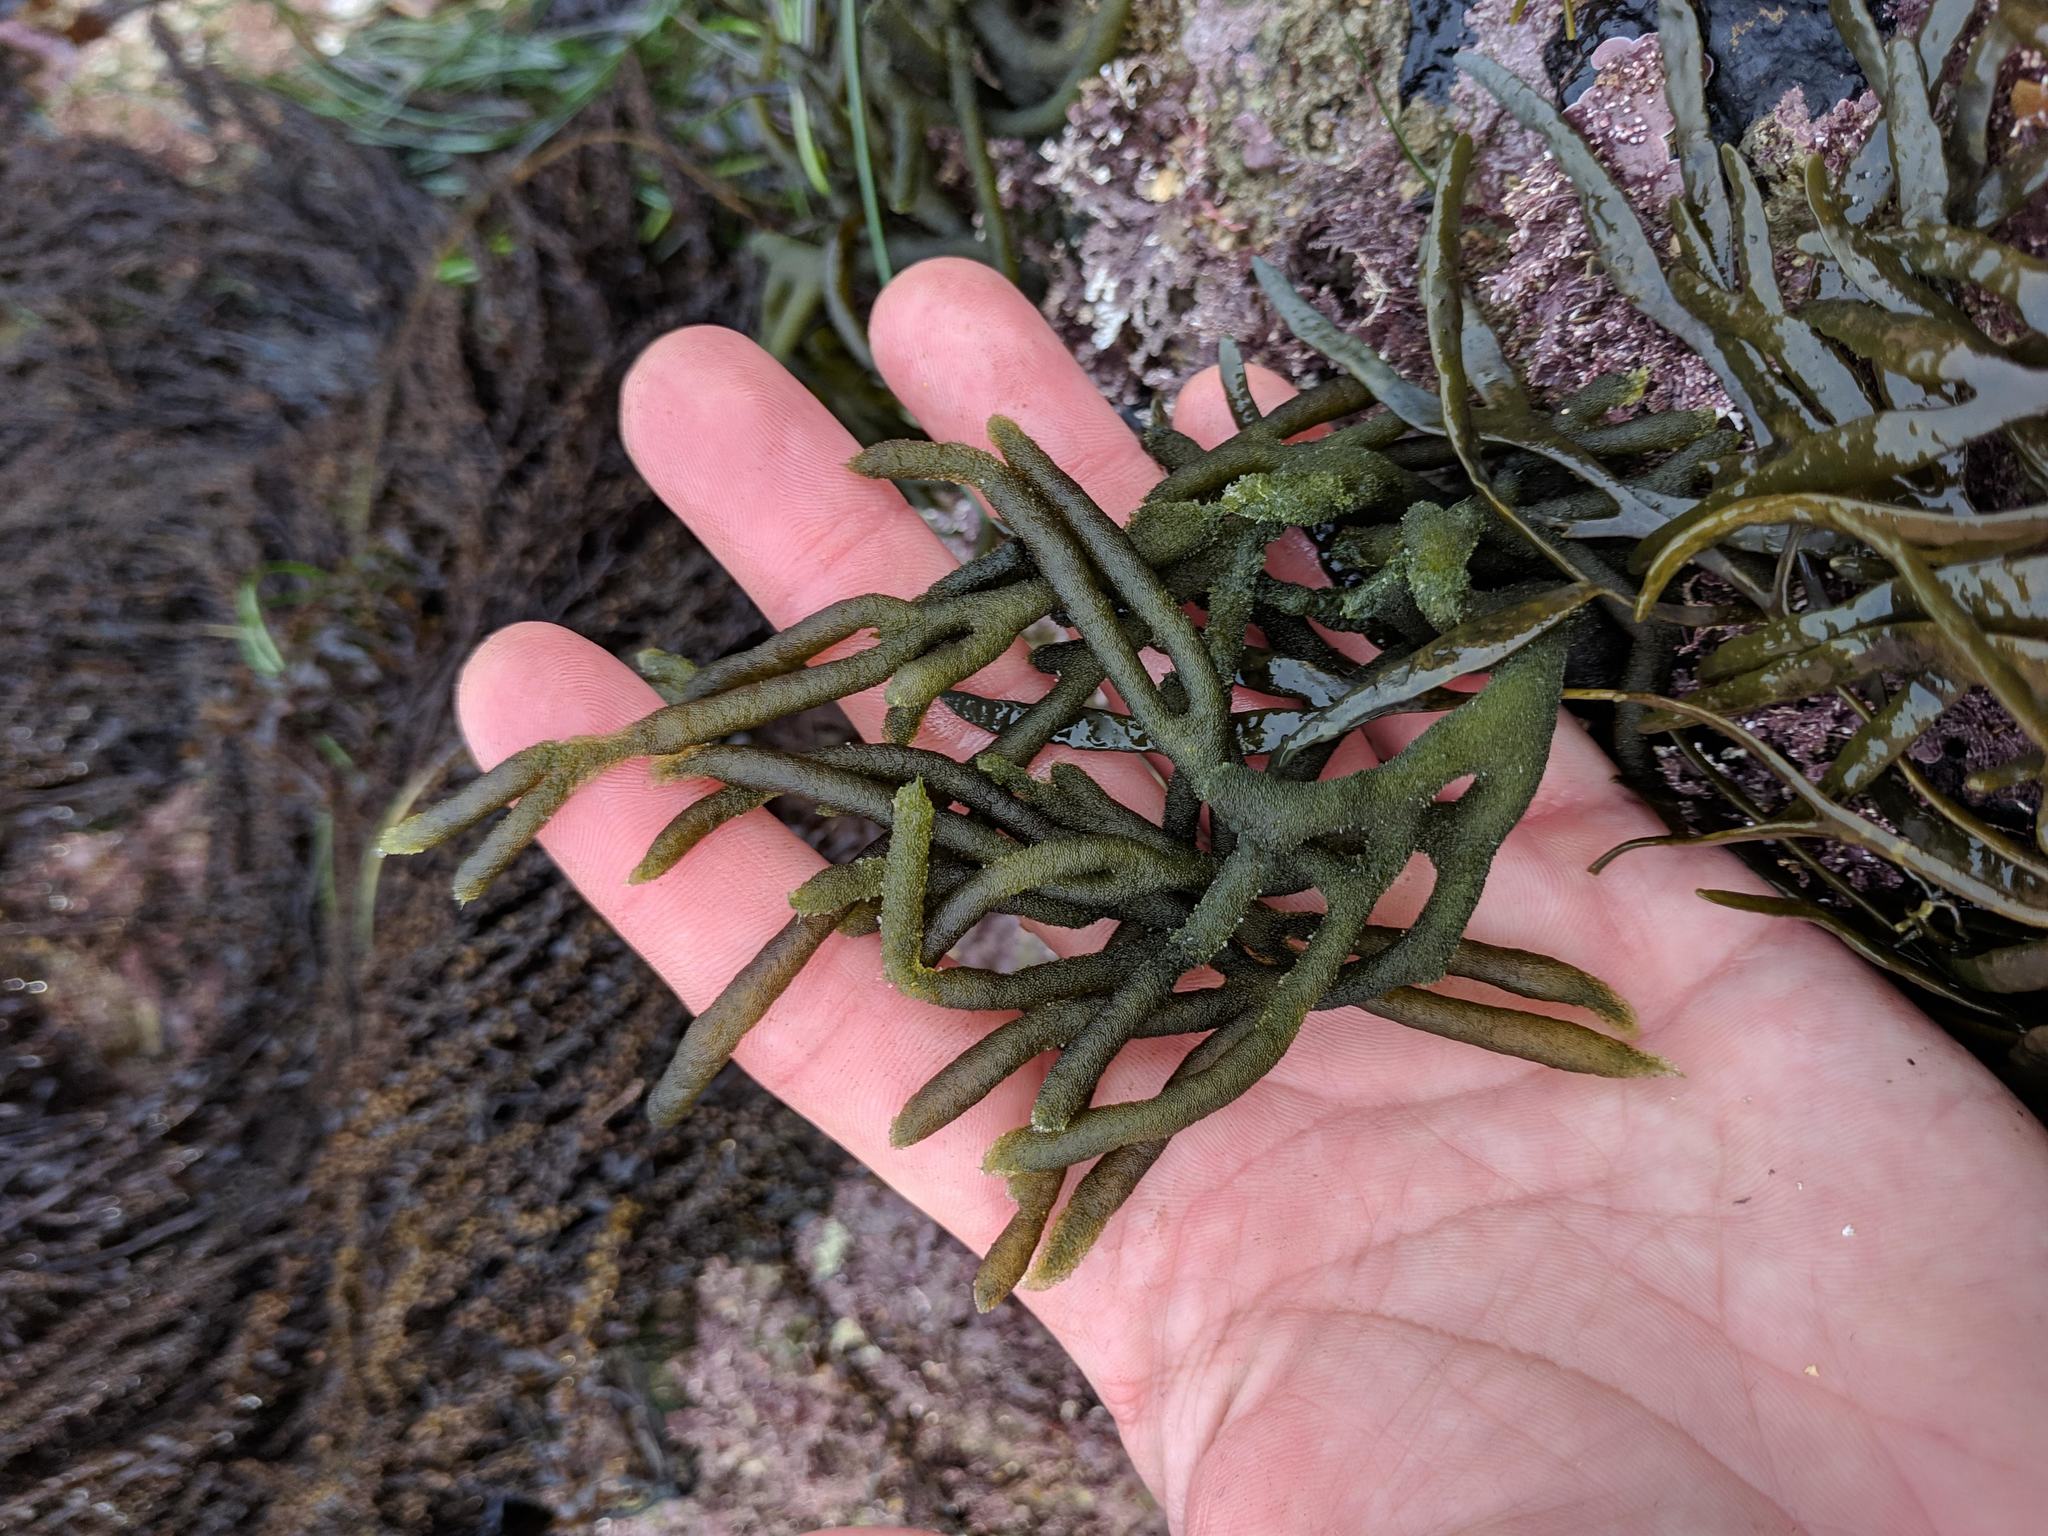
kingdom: Plantae
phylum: Chlorophyta
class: Ulvophyceae
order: Bryopsidales
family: Codiaceae
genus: Codium
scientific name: Codium fragile
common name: Dead man's fingers
